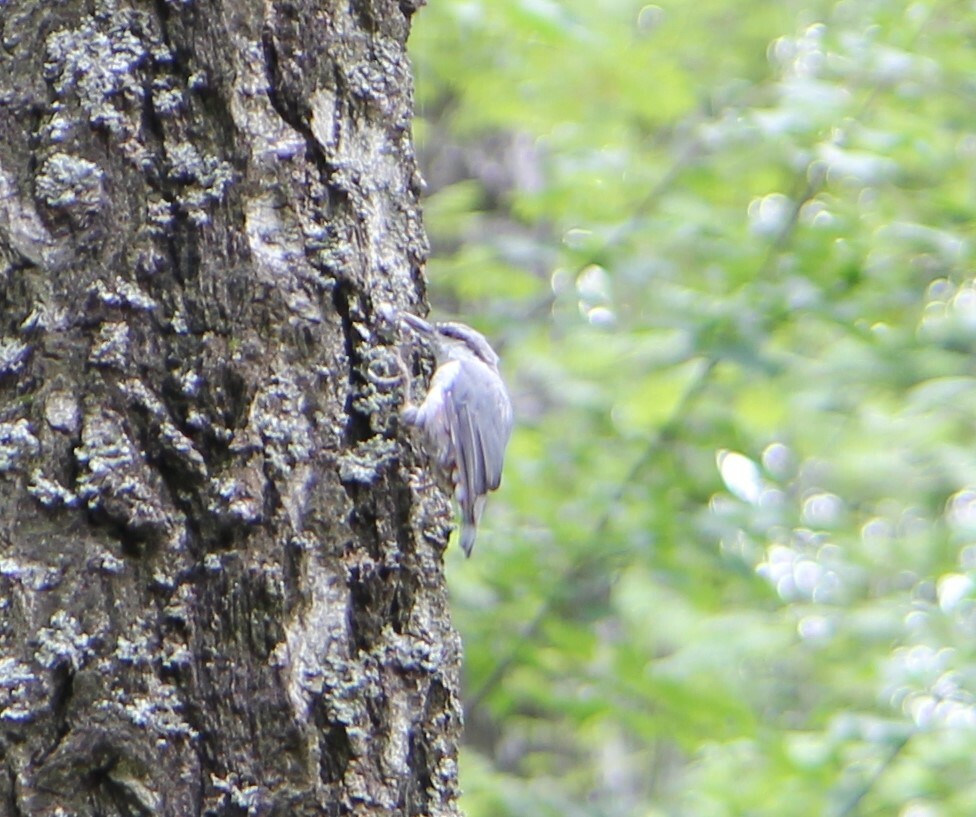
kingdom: Animalia
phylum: Chordata
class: Aves
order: Passeriformes
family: Sittidae
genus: Sitta
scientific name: Sitta europaea
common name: Eurasian nuthatch
